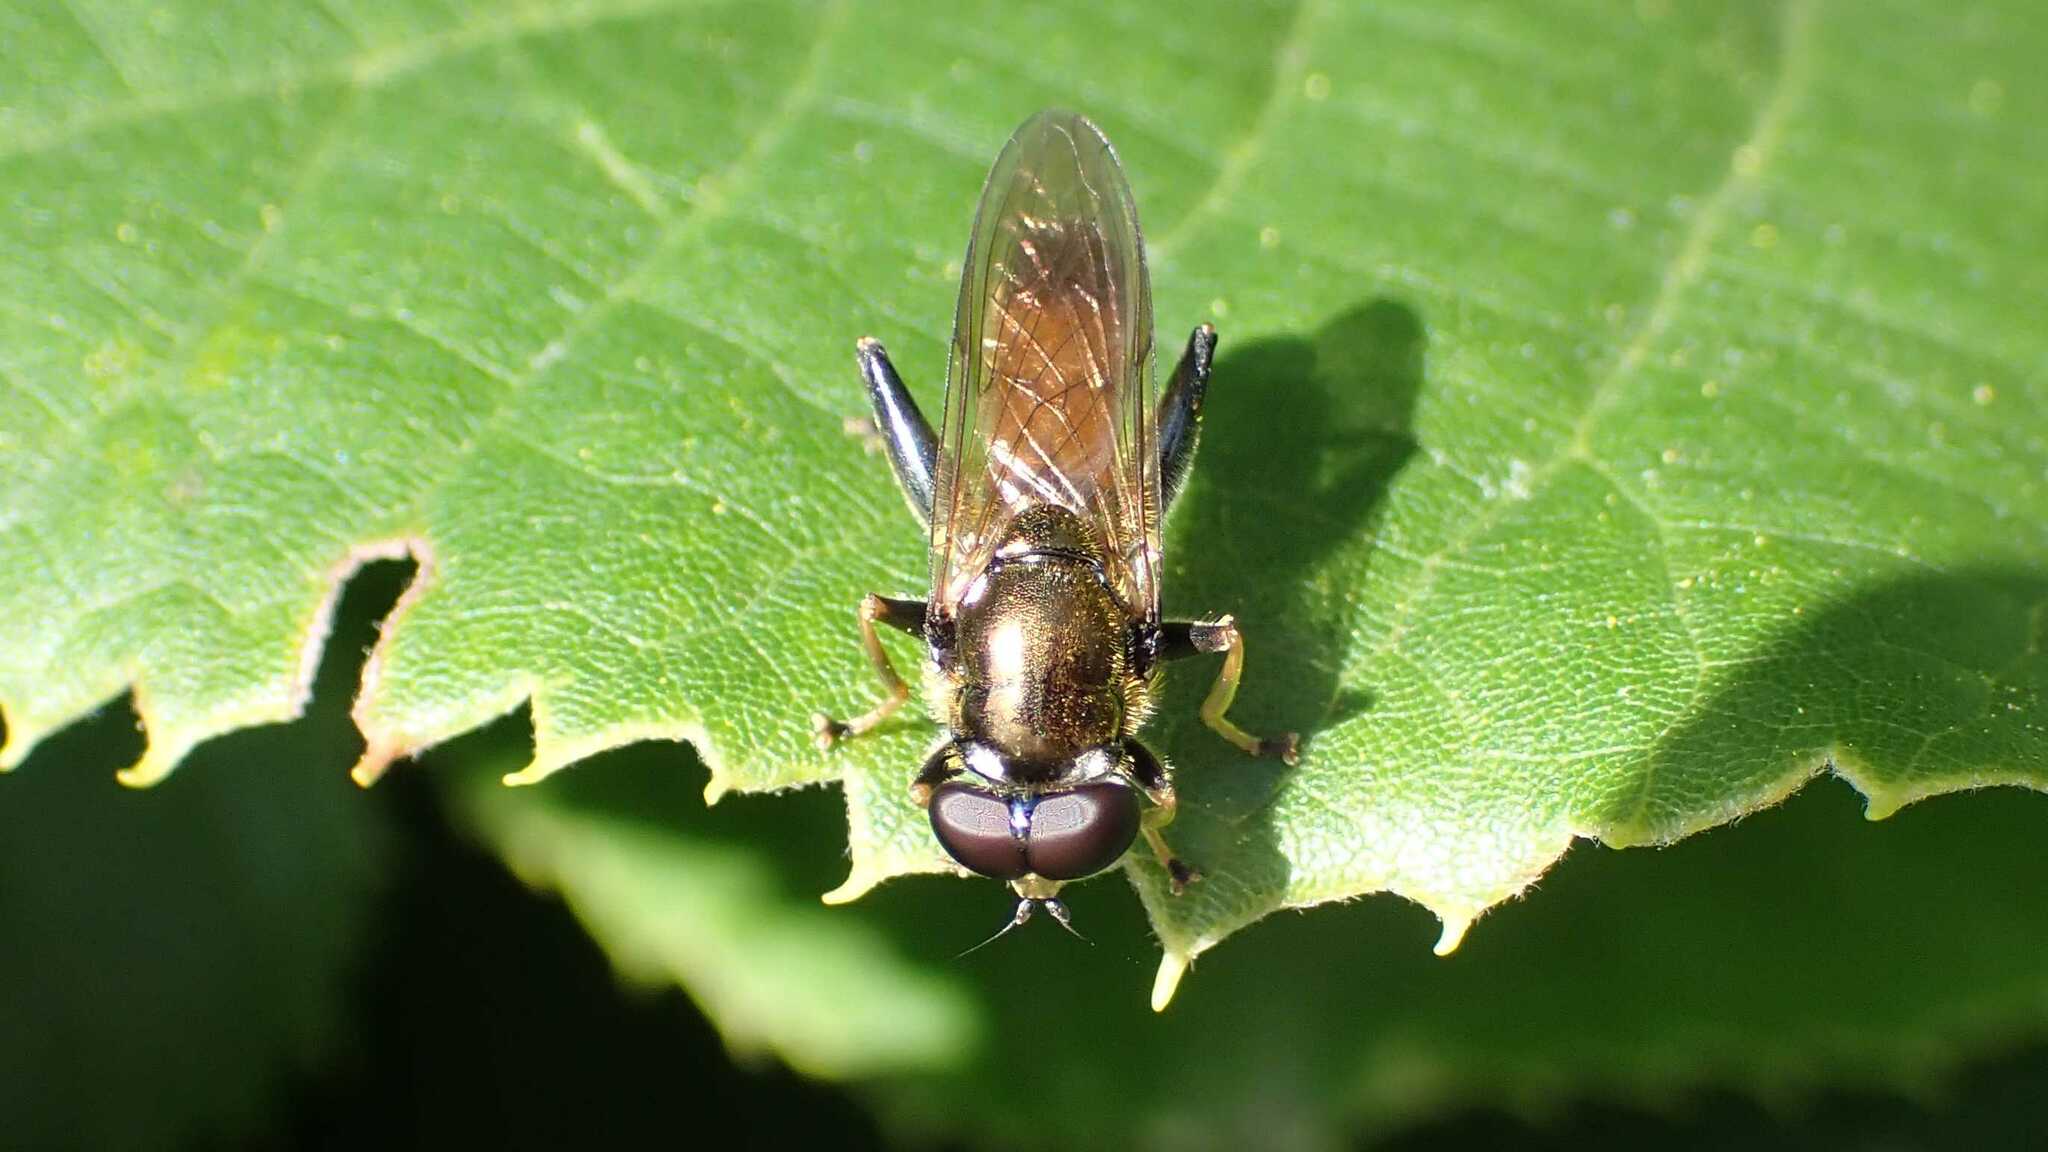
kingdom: Animalia
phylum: Arthropoda
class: Insecta
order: Diptera
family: Syrphidae
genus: Xylota
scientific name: Xylota segnis
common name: Brown-toed forest fly
